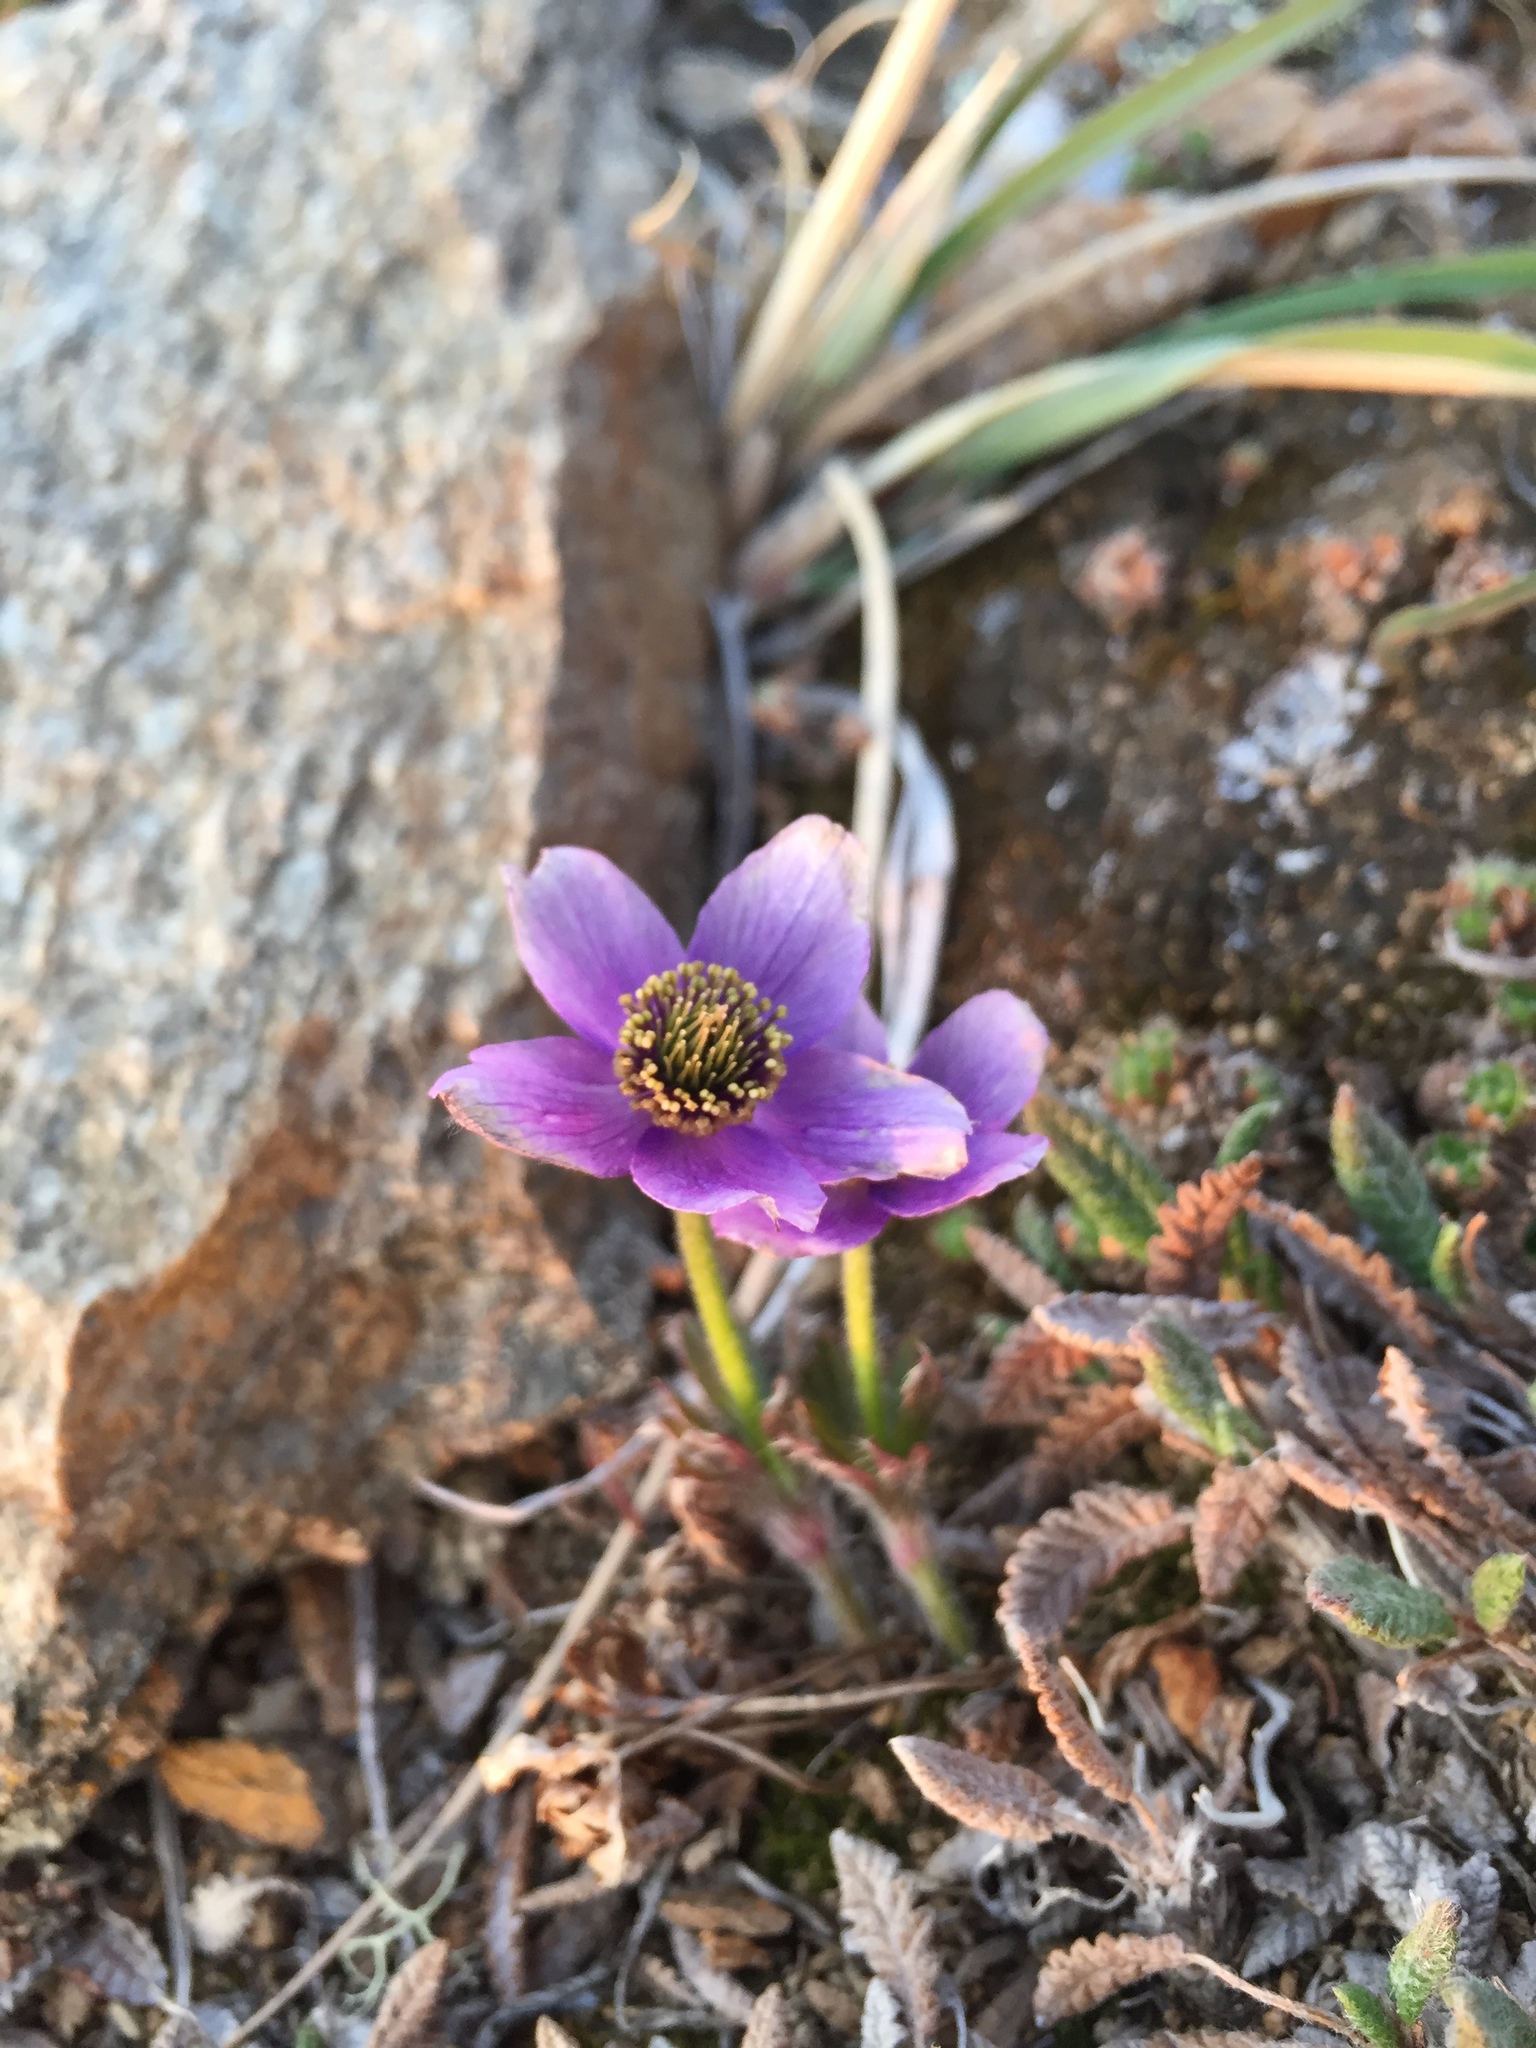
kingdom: Plantae
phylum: Tracheophyta
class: Magnoliopsida
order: Ranunculales
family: Ranunculaceae
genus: Pulsatilla
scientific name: Pulsatilla multiceps
